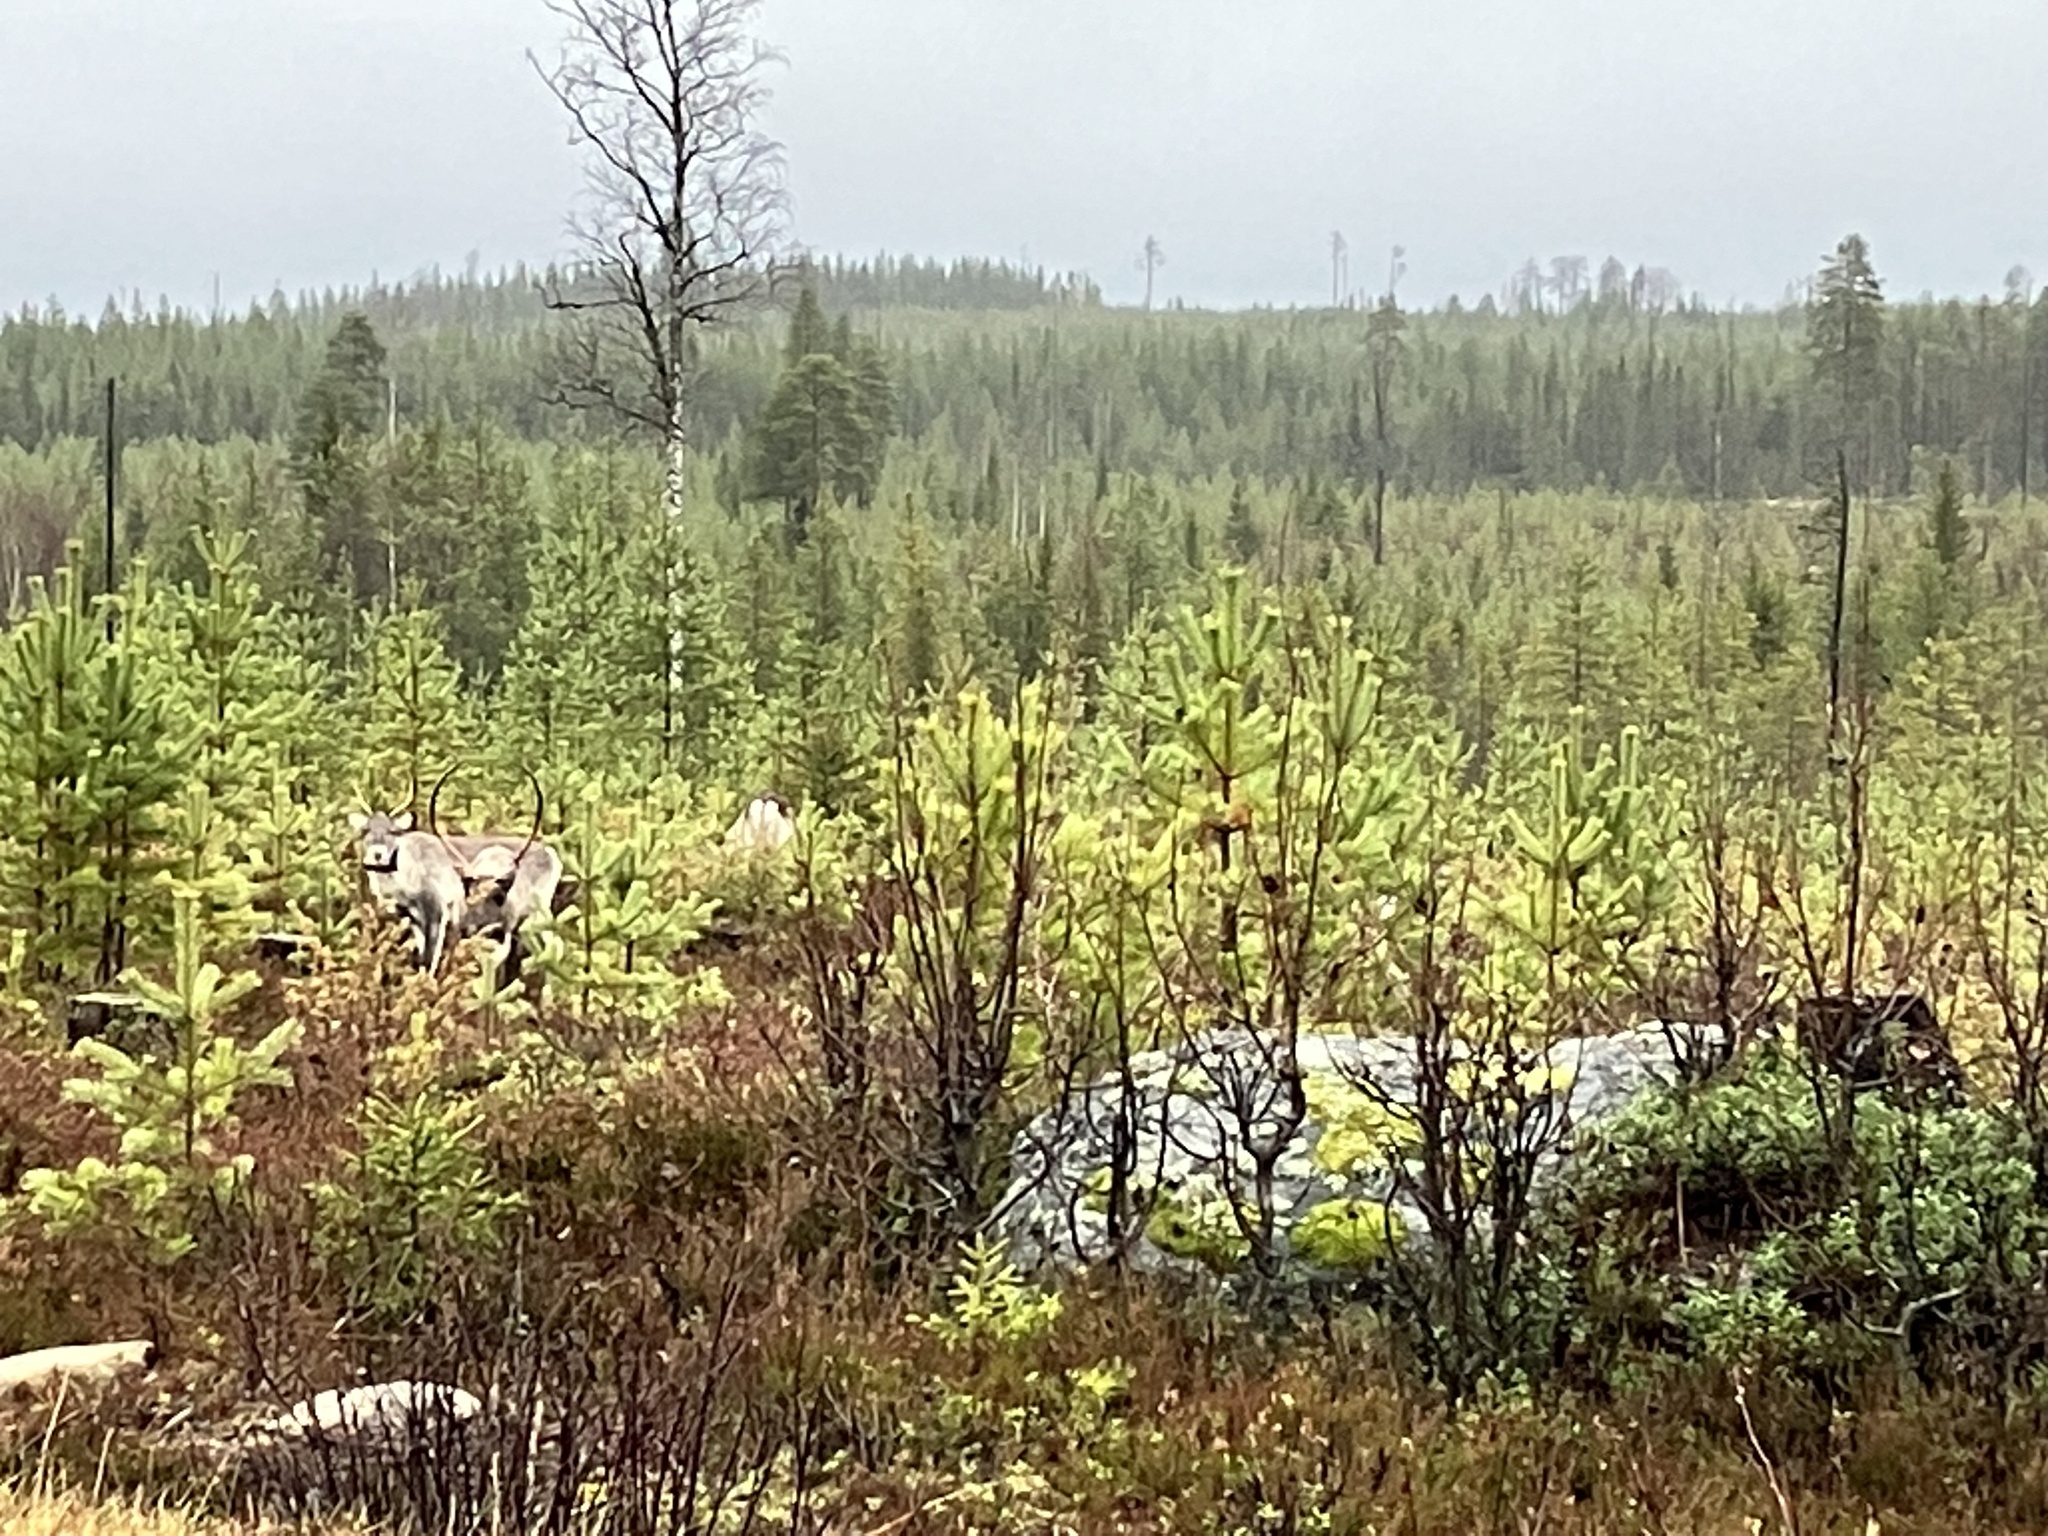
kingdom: Animalia
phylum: Chordata
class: Mammalia
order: Artiodactyla
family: Cervidae
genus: Rangifer
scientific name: Rangifer tarandus
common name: Reindeer
